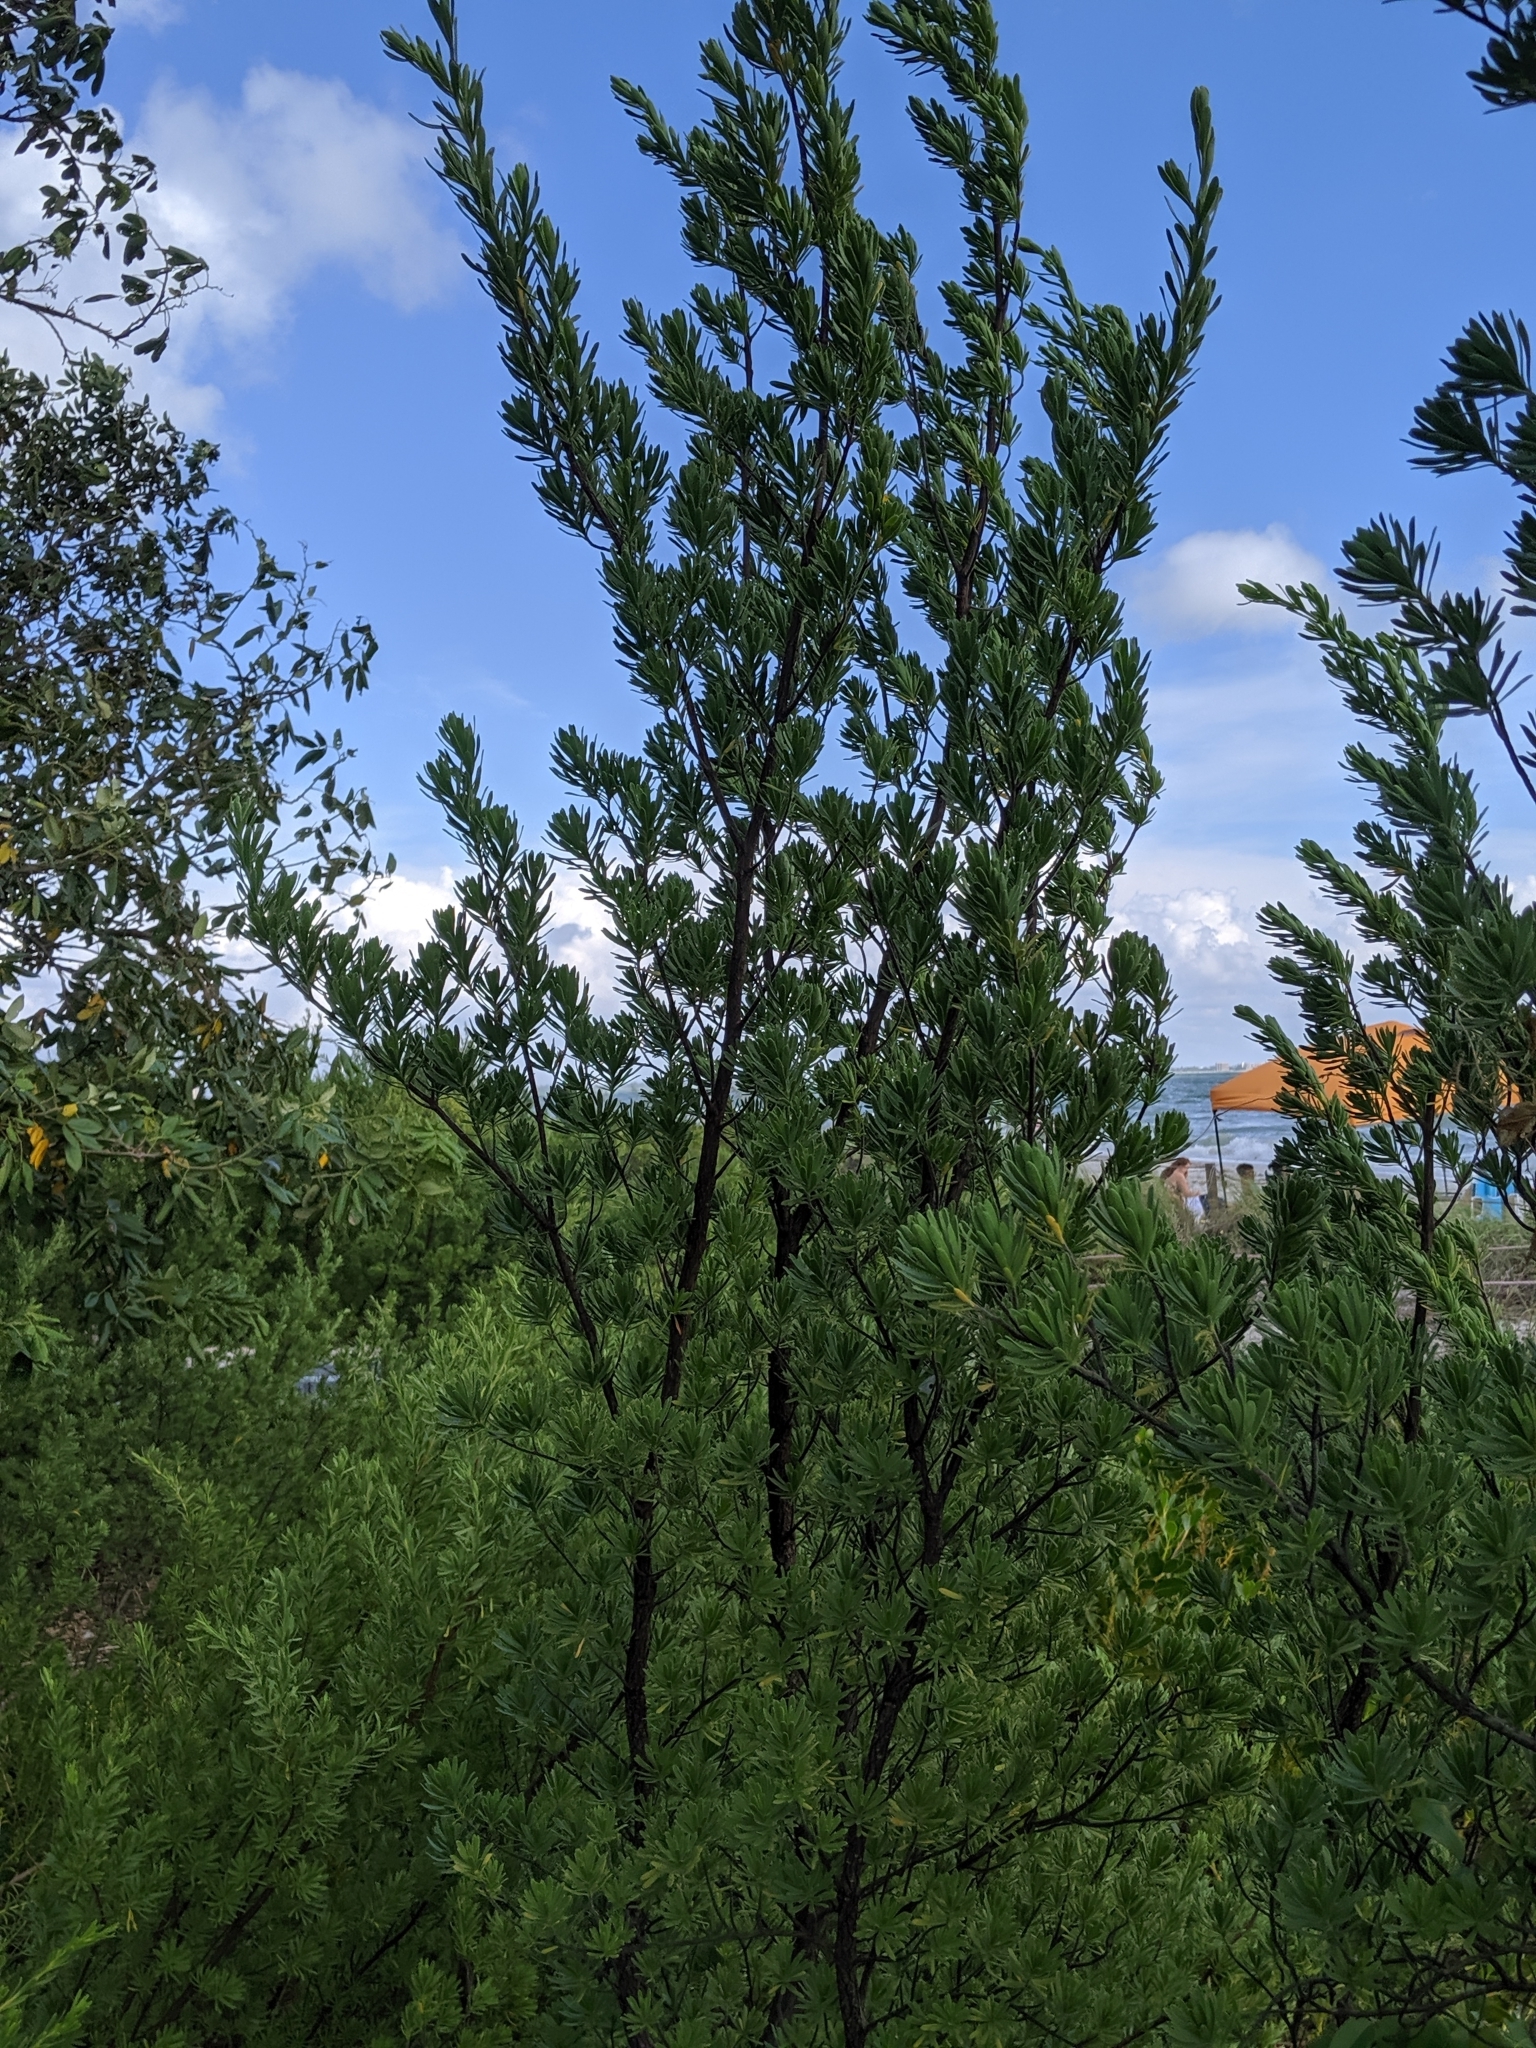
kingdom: Plantae
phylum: Tracheophyta
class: Magnoliopsida
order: Fabales
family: Surianaceae
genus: Suriana
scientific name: Suriana maritima
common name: Bay-cedar
